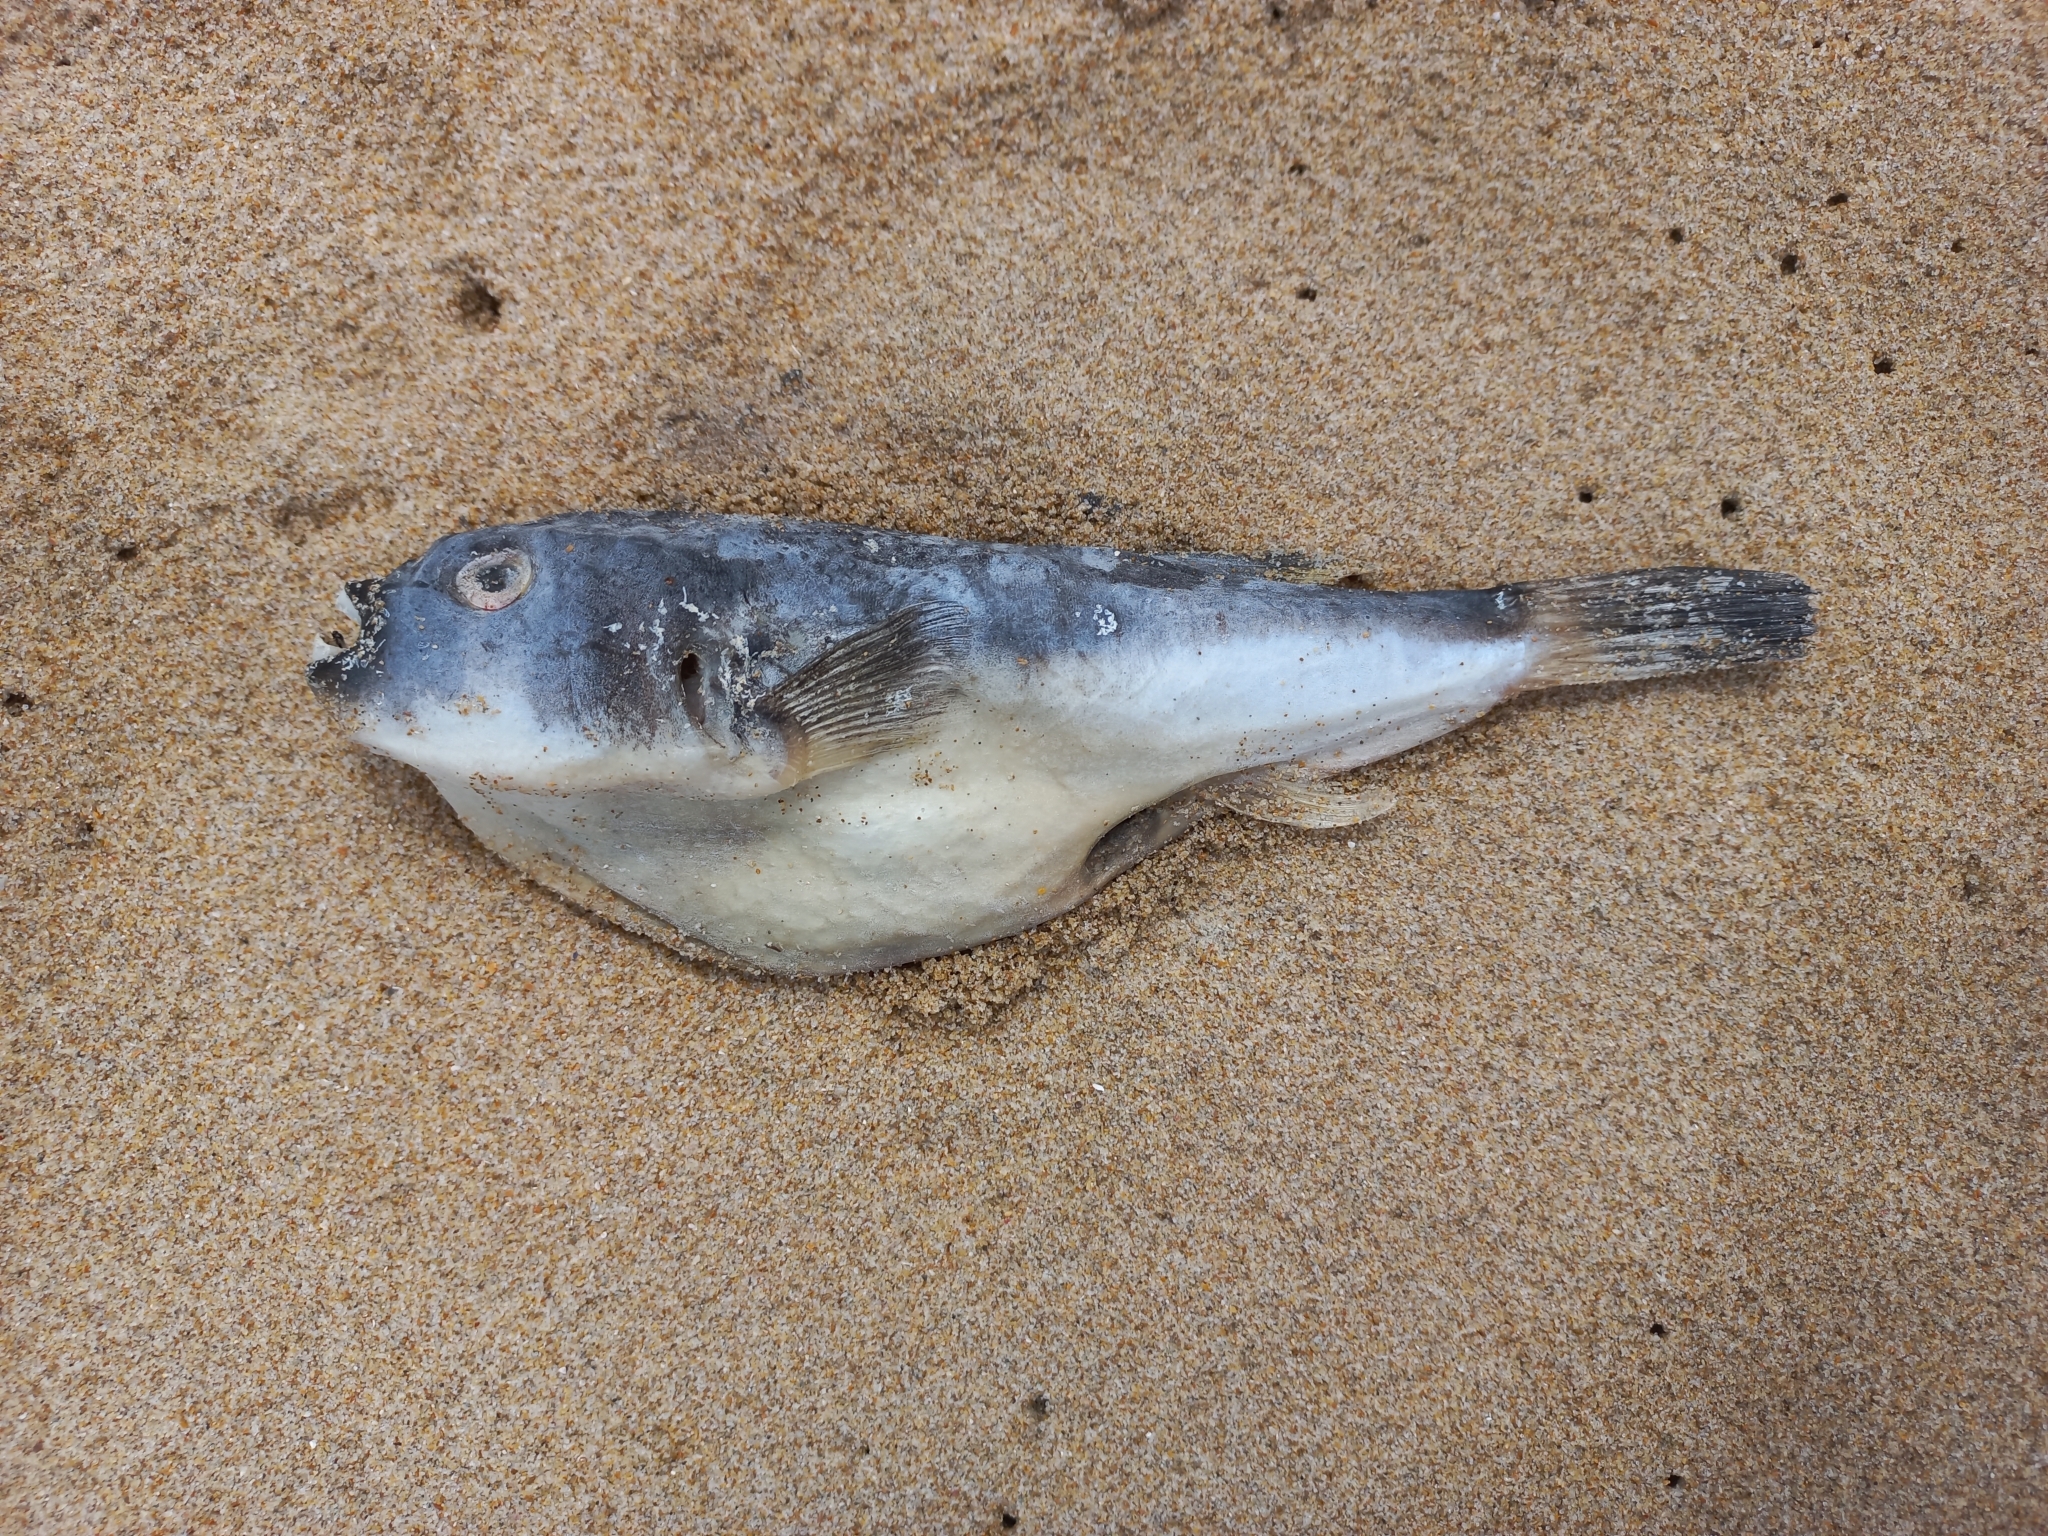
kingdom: Animalia
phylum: Chordata
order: Tetraodontiformes
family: Tetraodontidae
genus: Amblyrhynchote
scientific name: Amblyrhynchote honckenii
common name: Evileye blaasop
